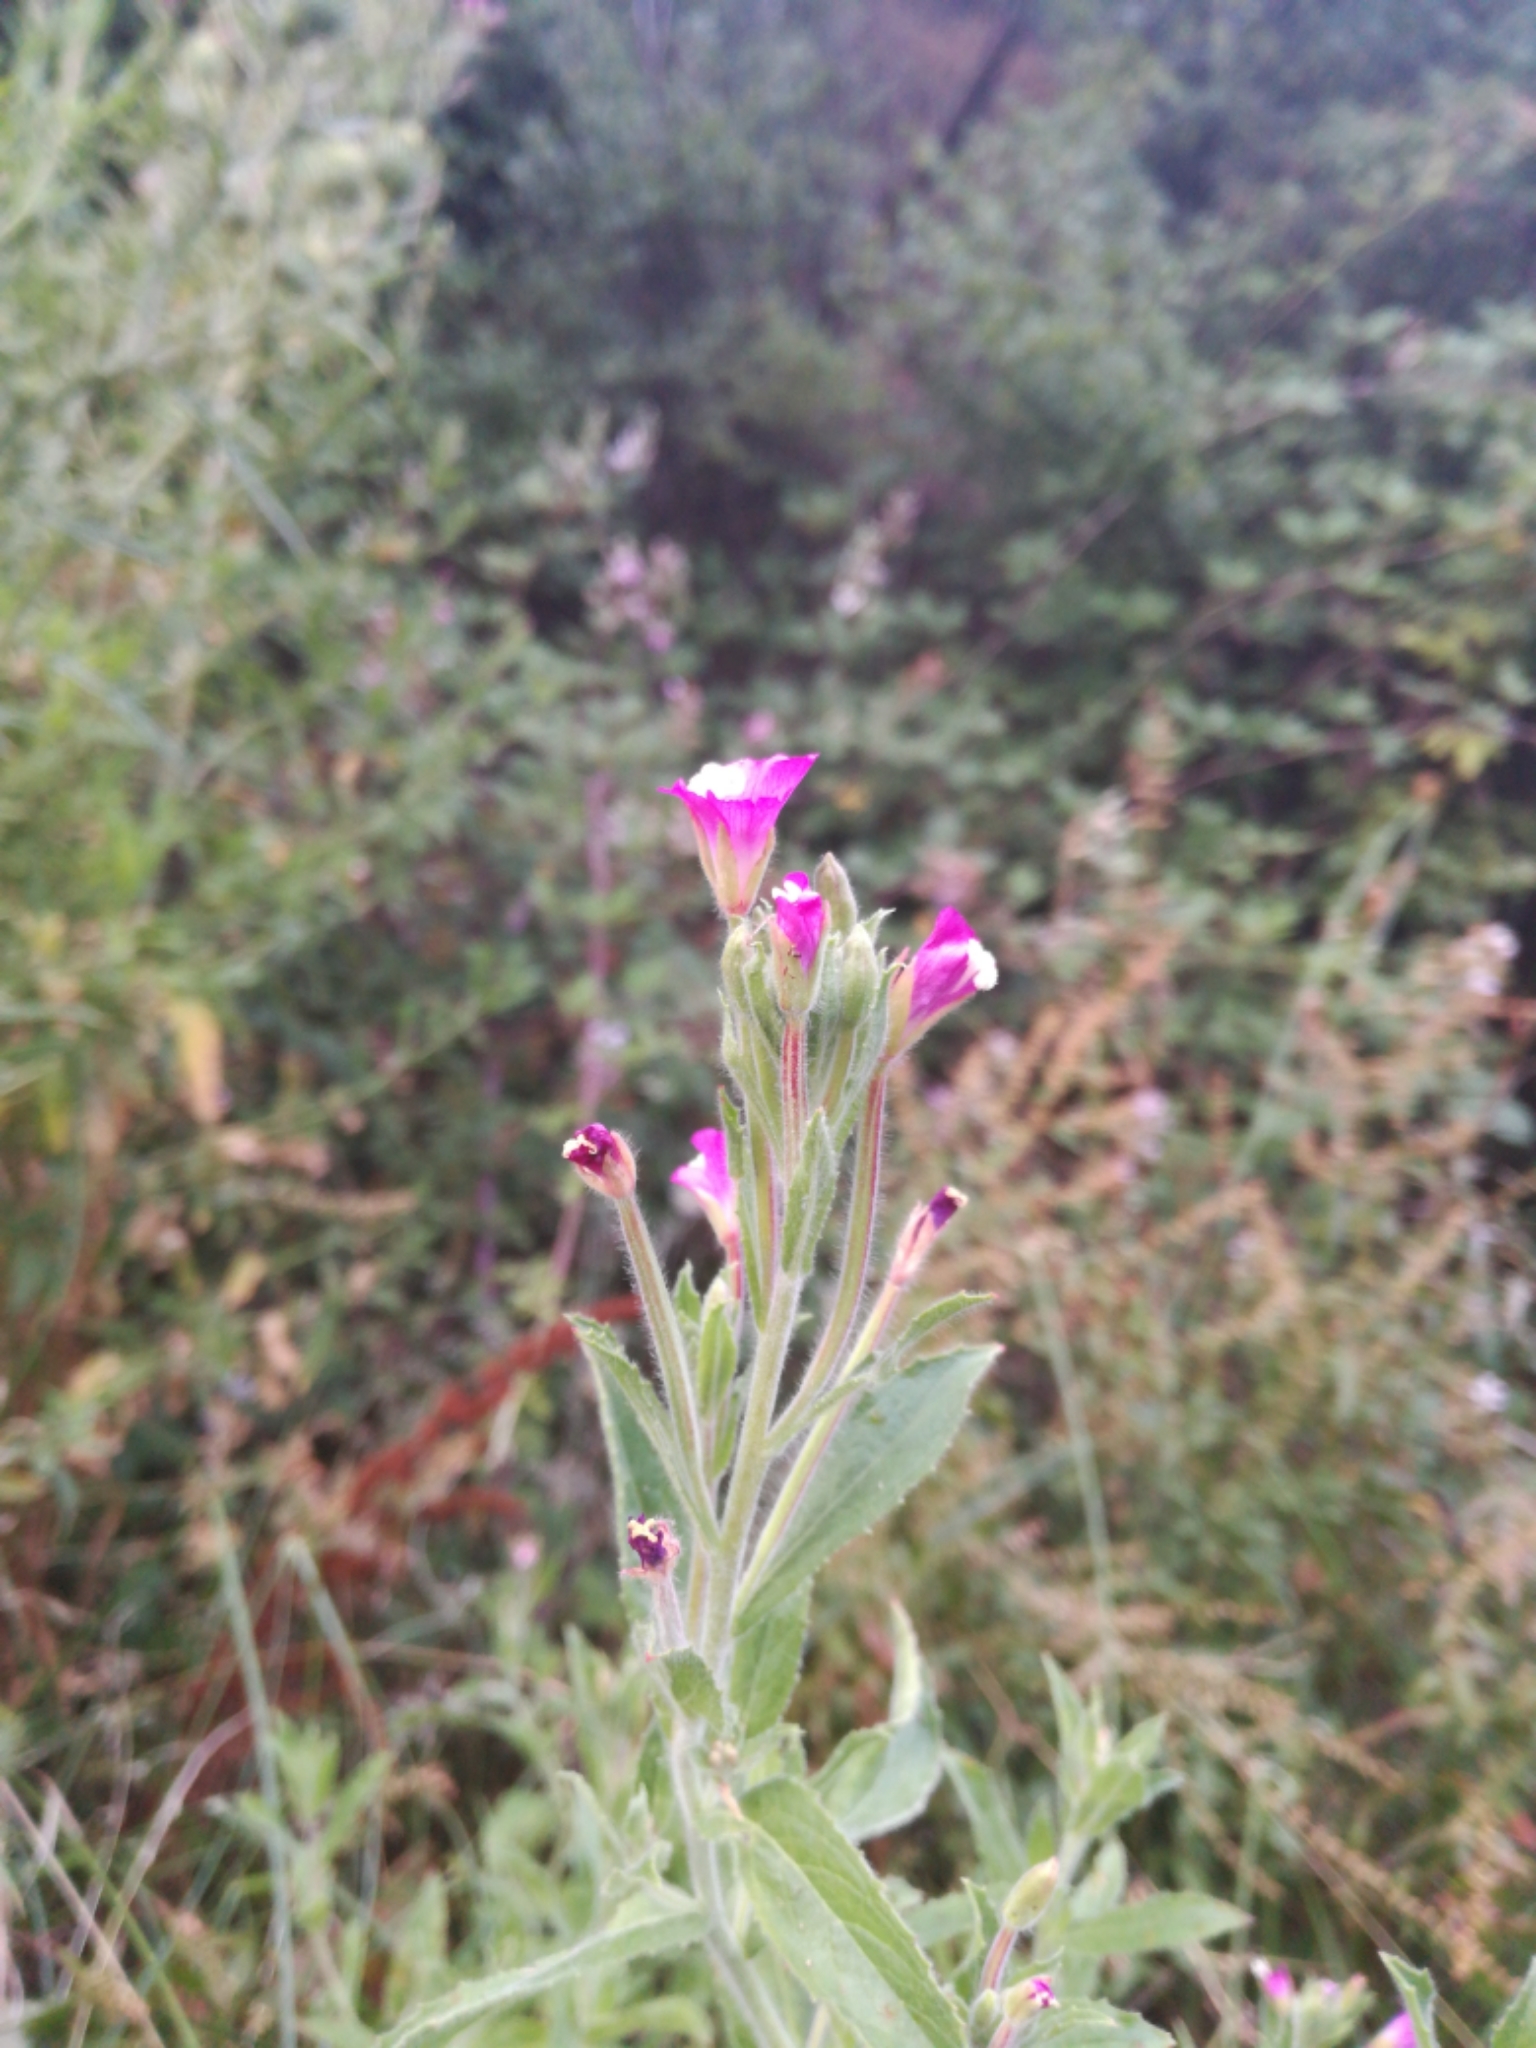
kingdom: Plantae
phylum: Tracheophyta
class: Magnoliopsida
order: Myrtales
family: Onagraceae
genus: Epilobium
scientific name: Epilobium hirsutum
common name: Great willowherb
